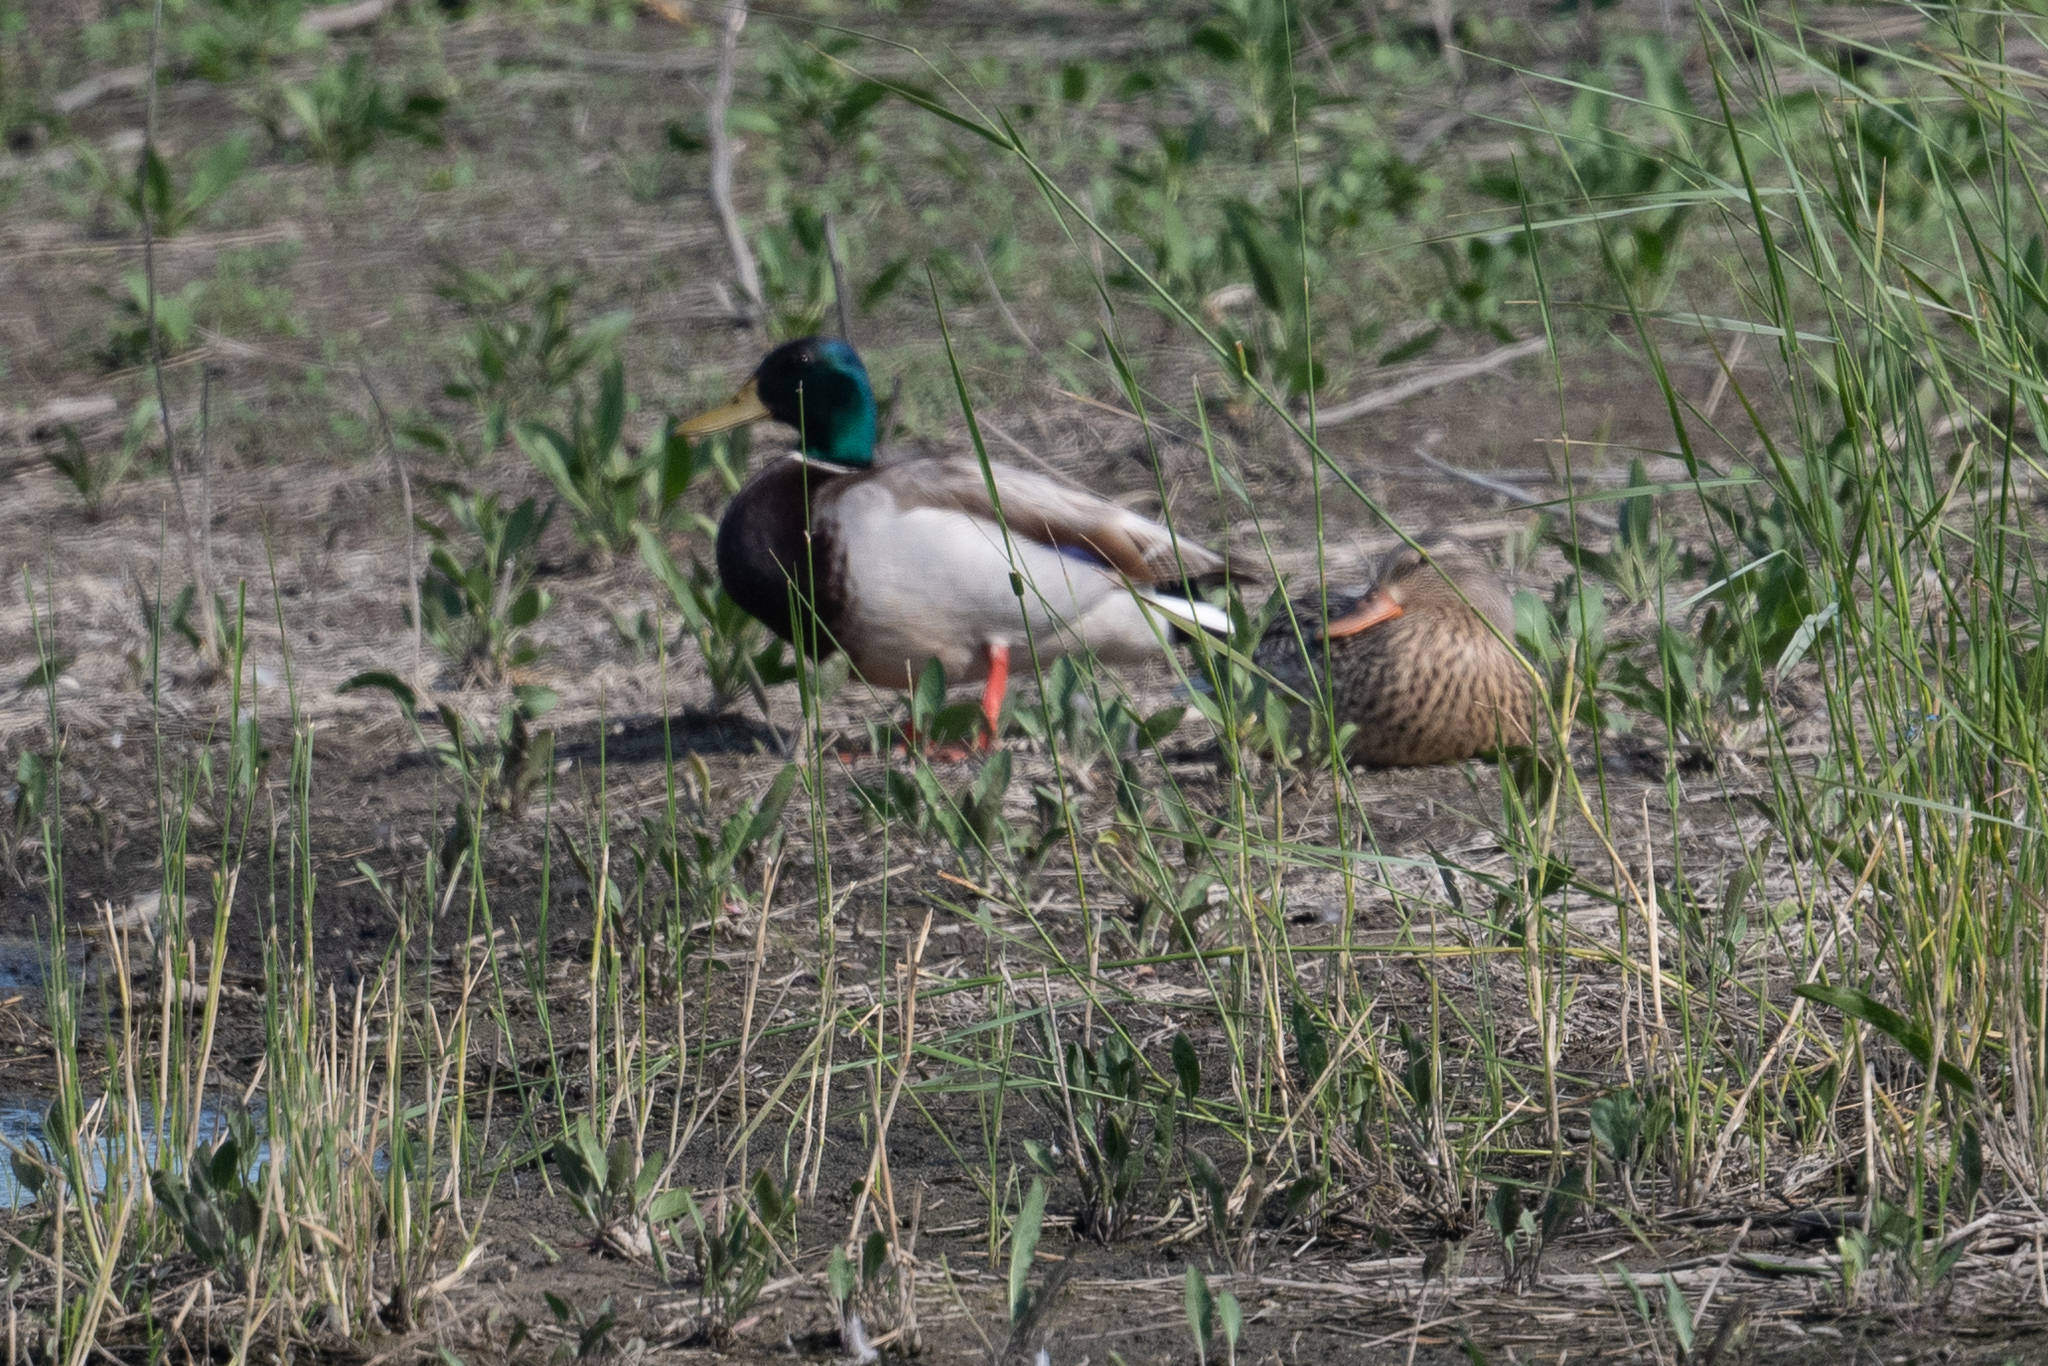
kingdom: Animalia
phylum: Chordata
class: Aves
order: Anseriformes
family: Anatidae
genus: Anas
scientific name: Anas platyrhynchos
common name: Mallard
